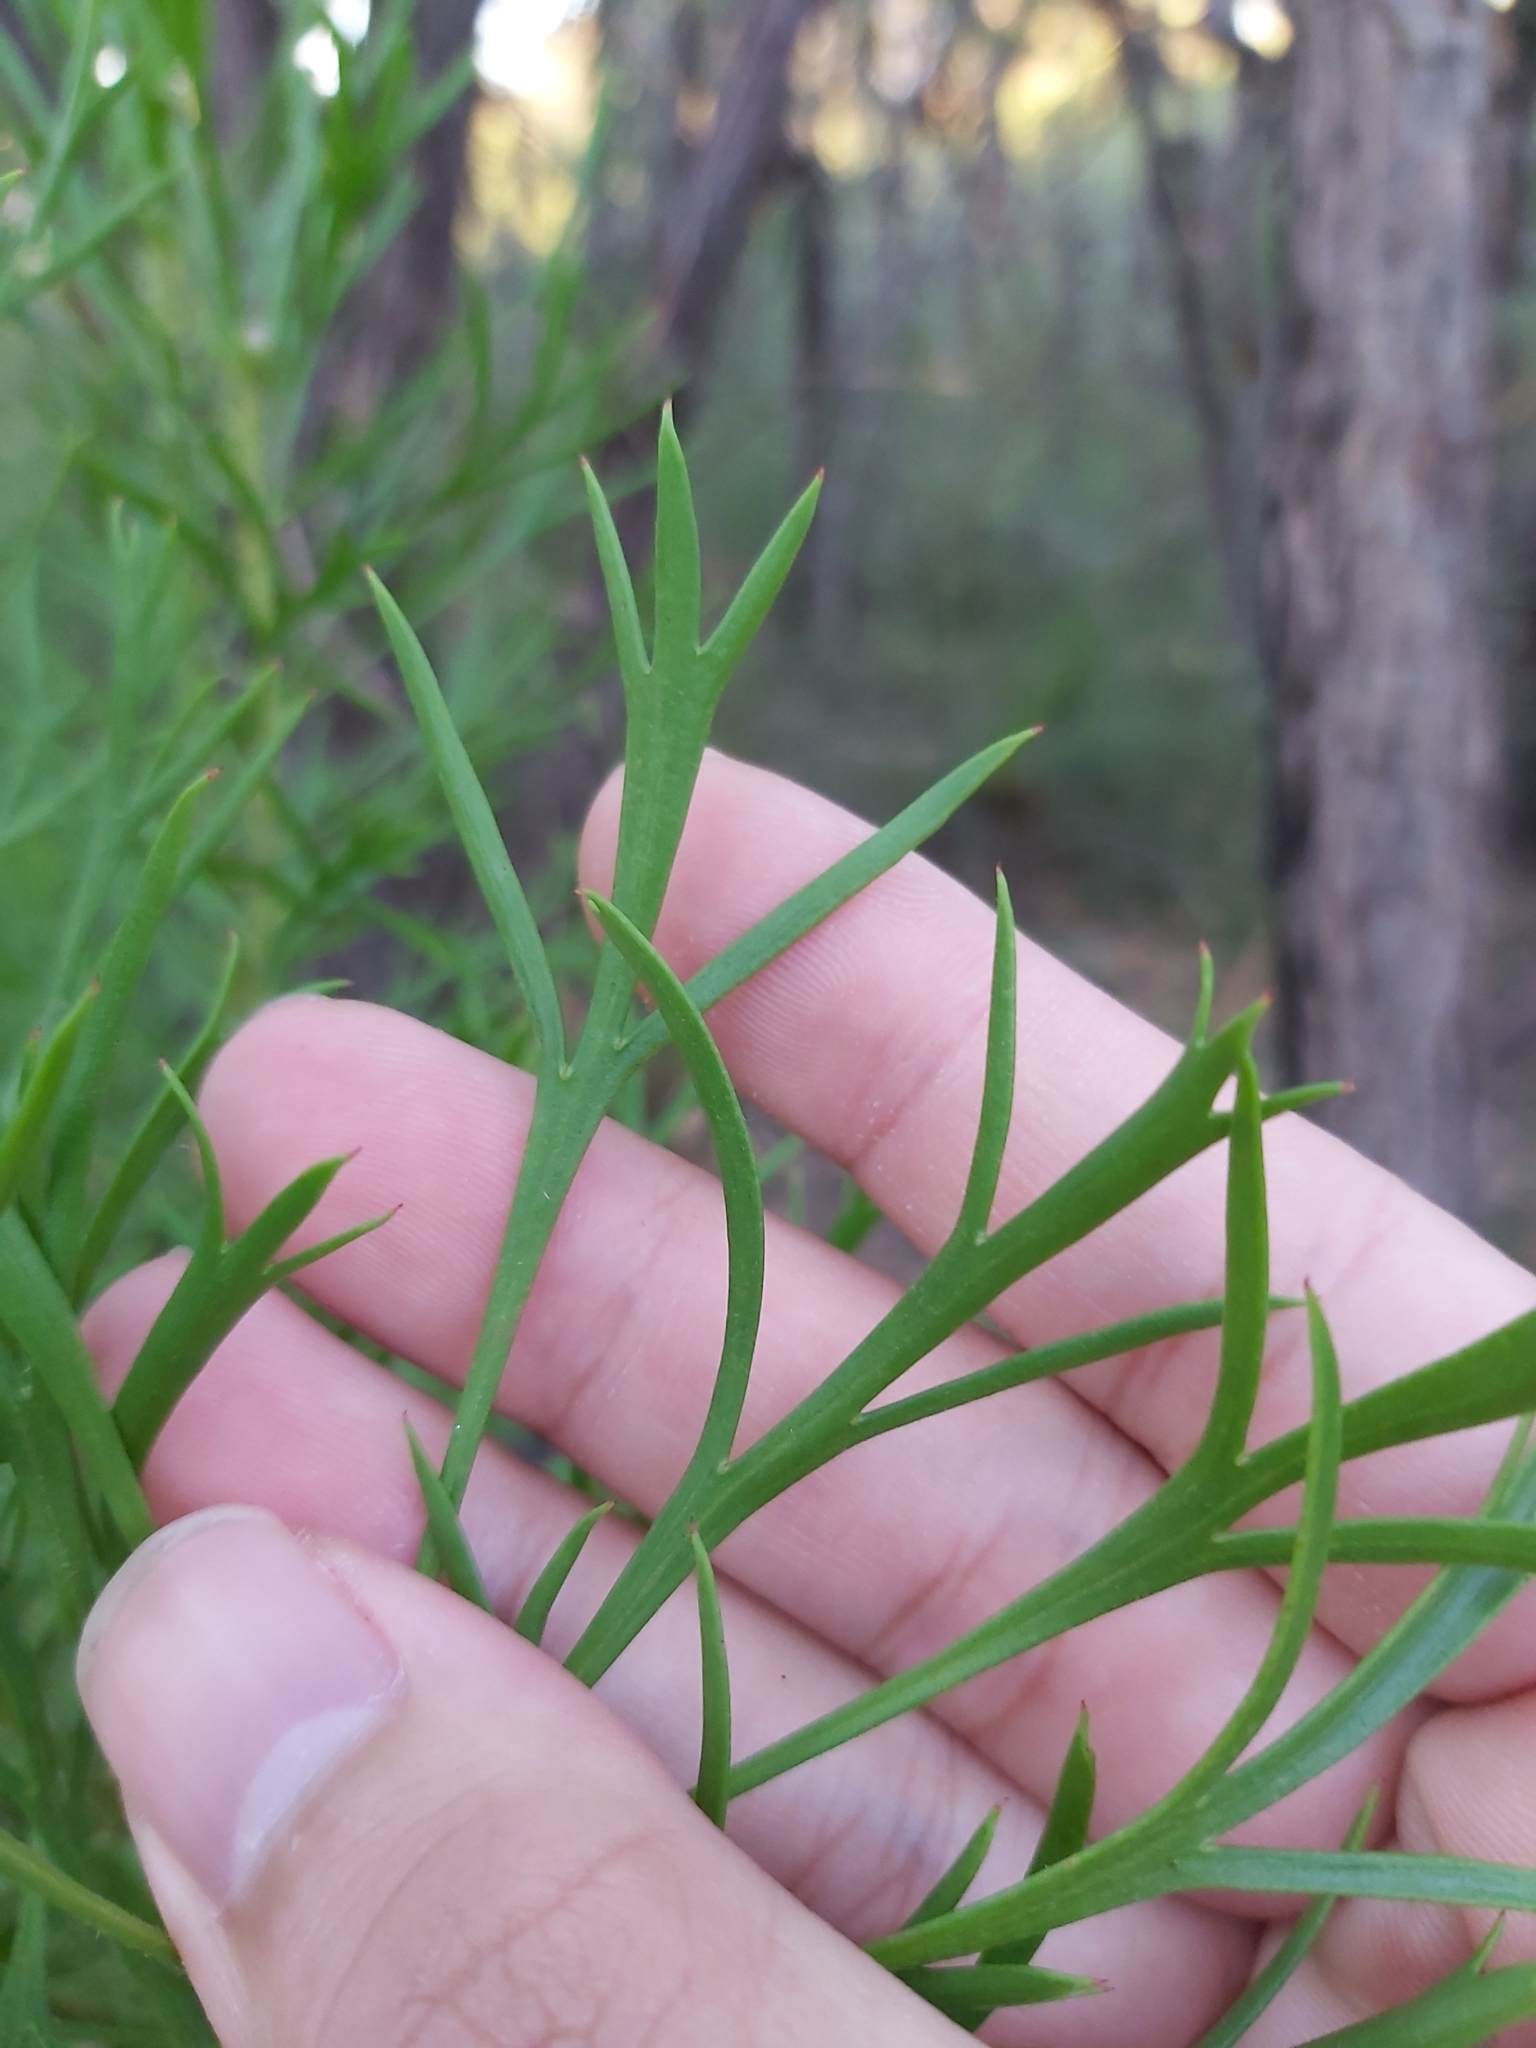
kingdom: Plantae
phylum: Tracheophyta
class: Magnoliopsida
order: Proteales
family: Proteaceae
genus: Isopogon
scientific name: Isopogon anemonifolius
